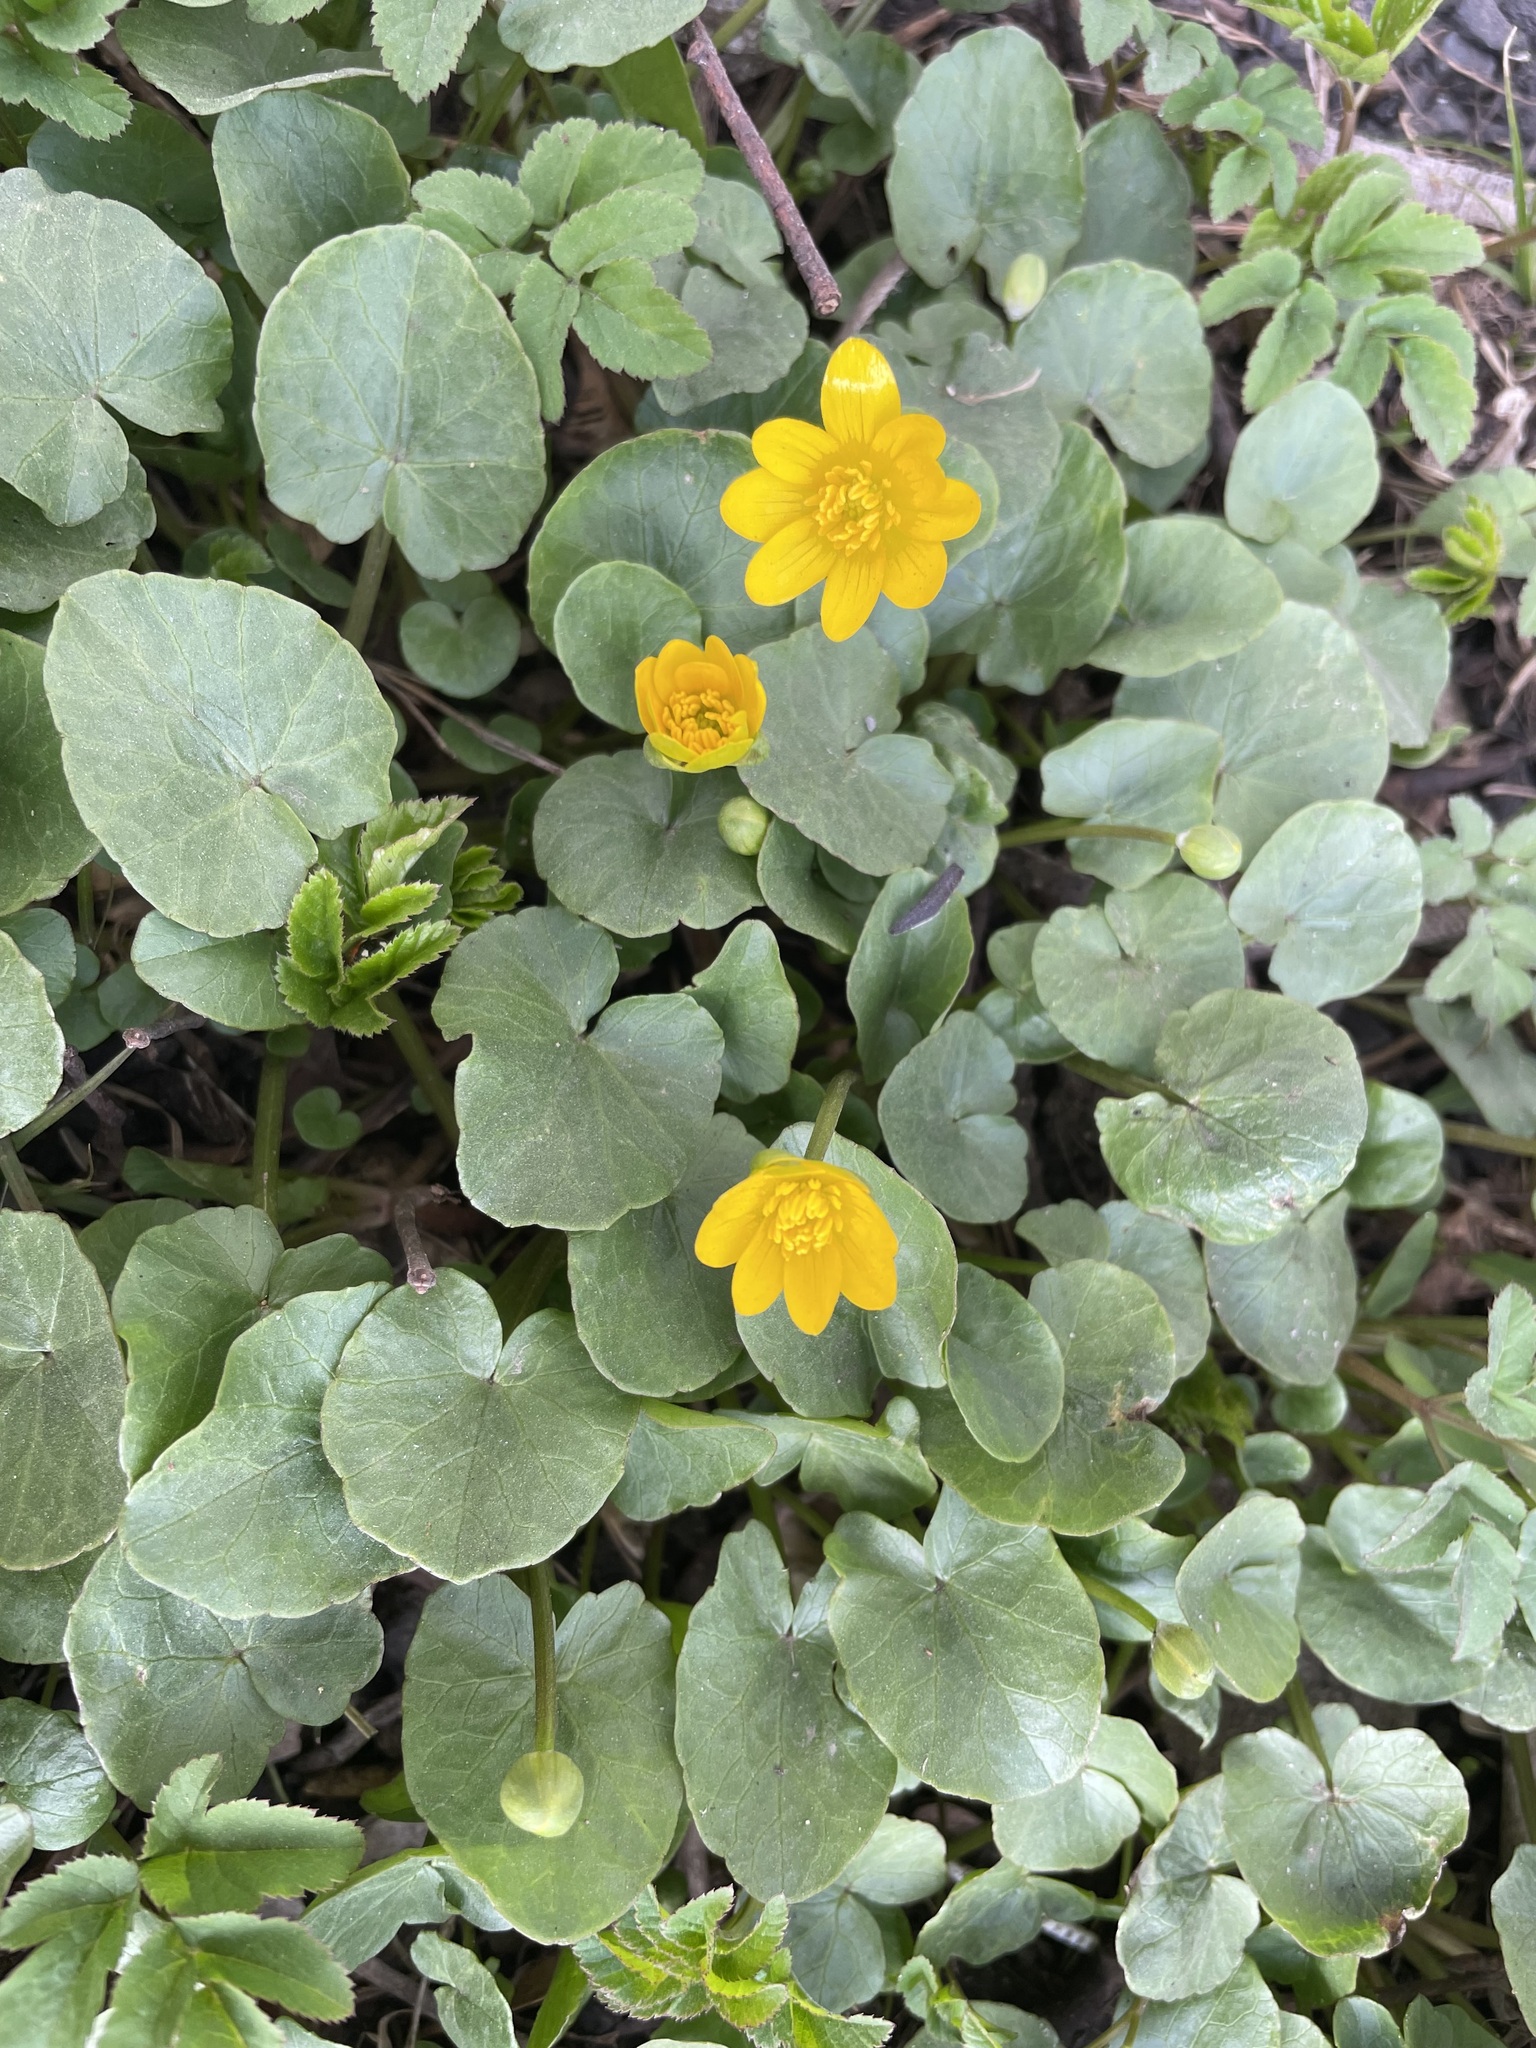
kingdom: Plantae
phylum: Tracheophyta
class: Magnoliopsida
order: Ranunculales
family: Ranunculaceae
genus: Ficaria
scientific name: Ficaria verna
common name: Lesser celandine
